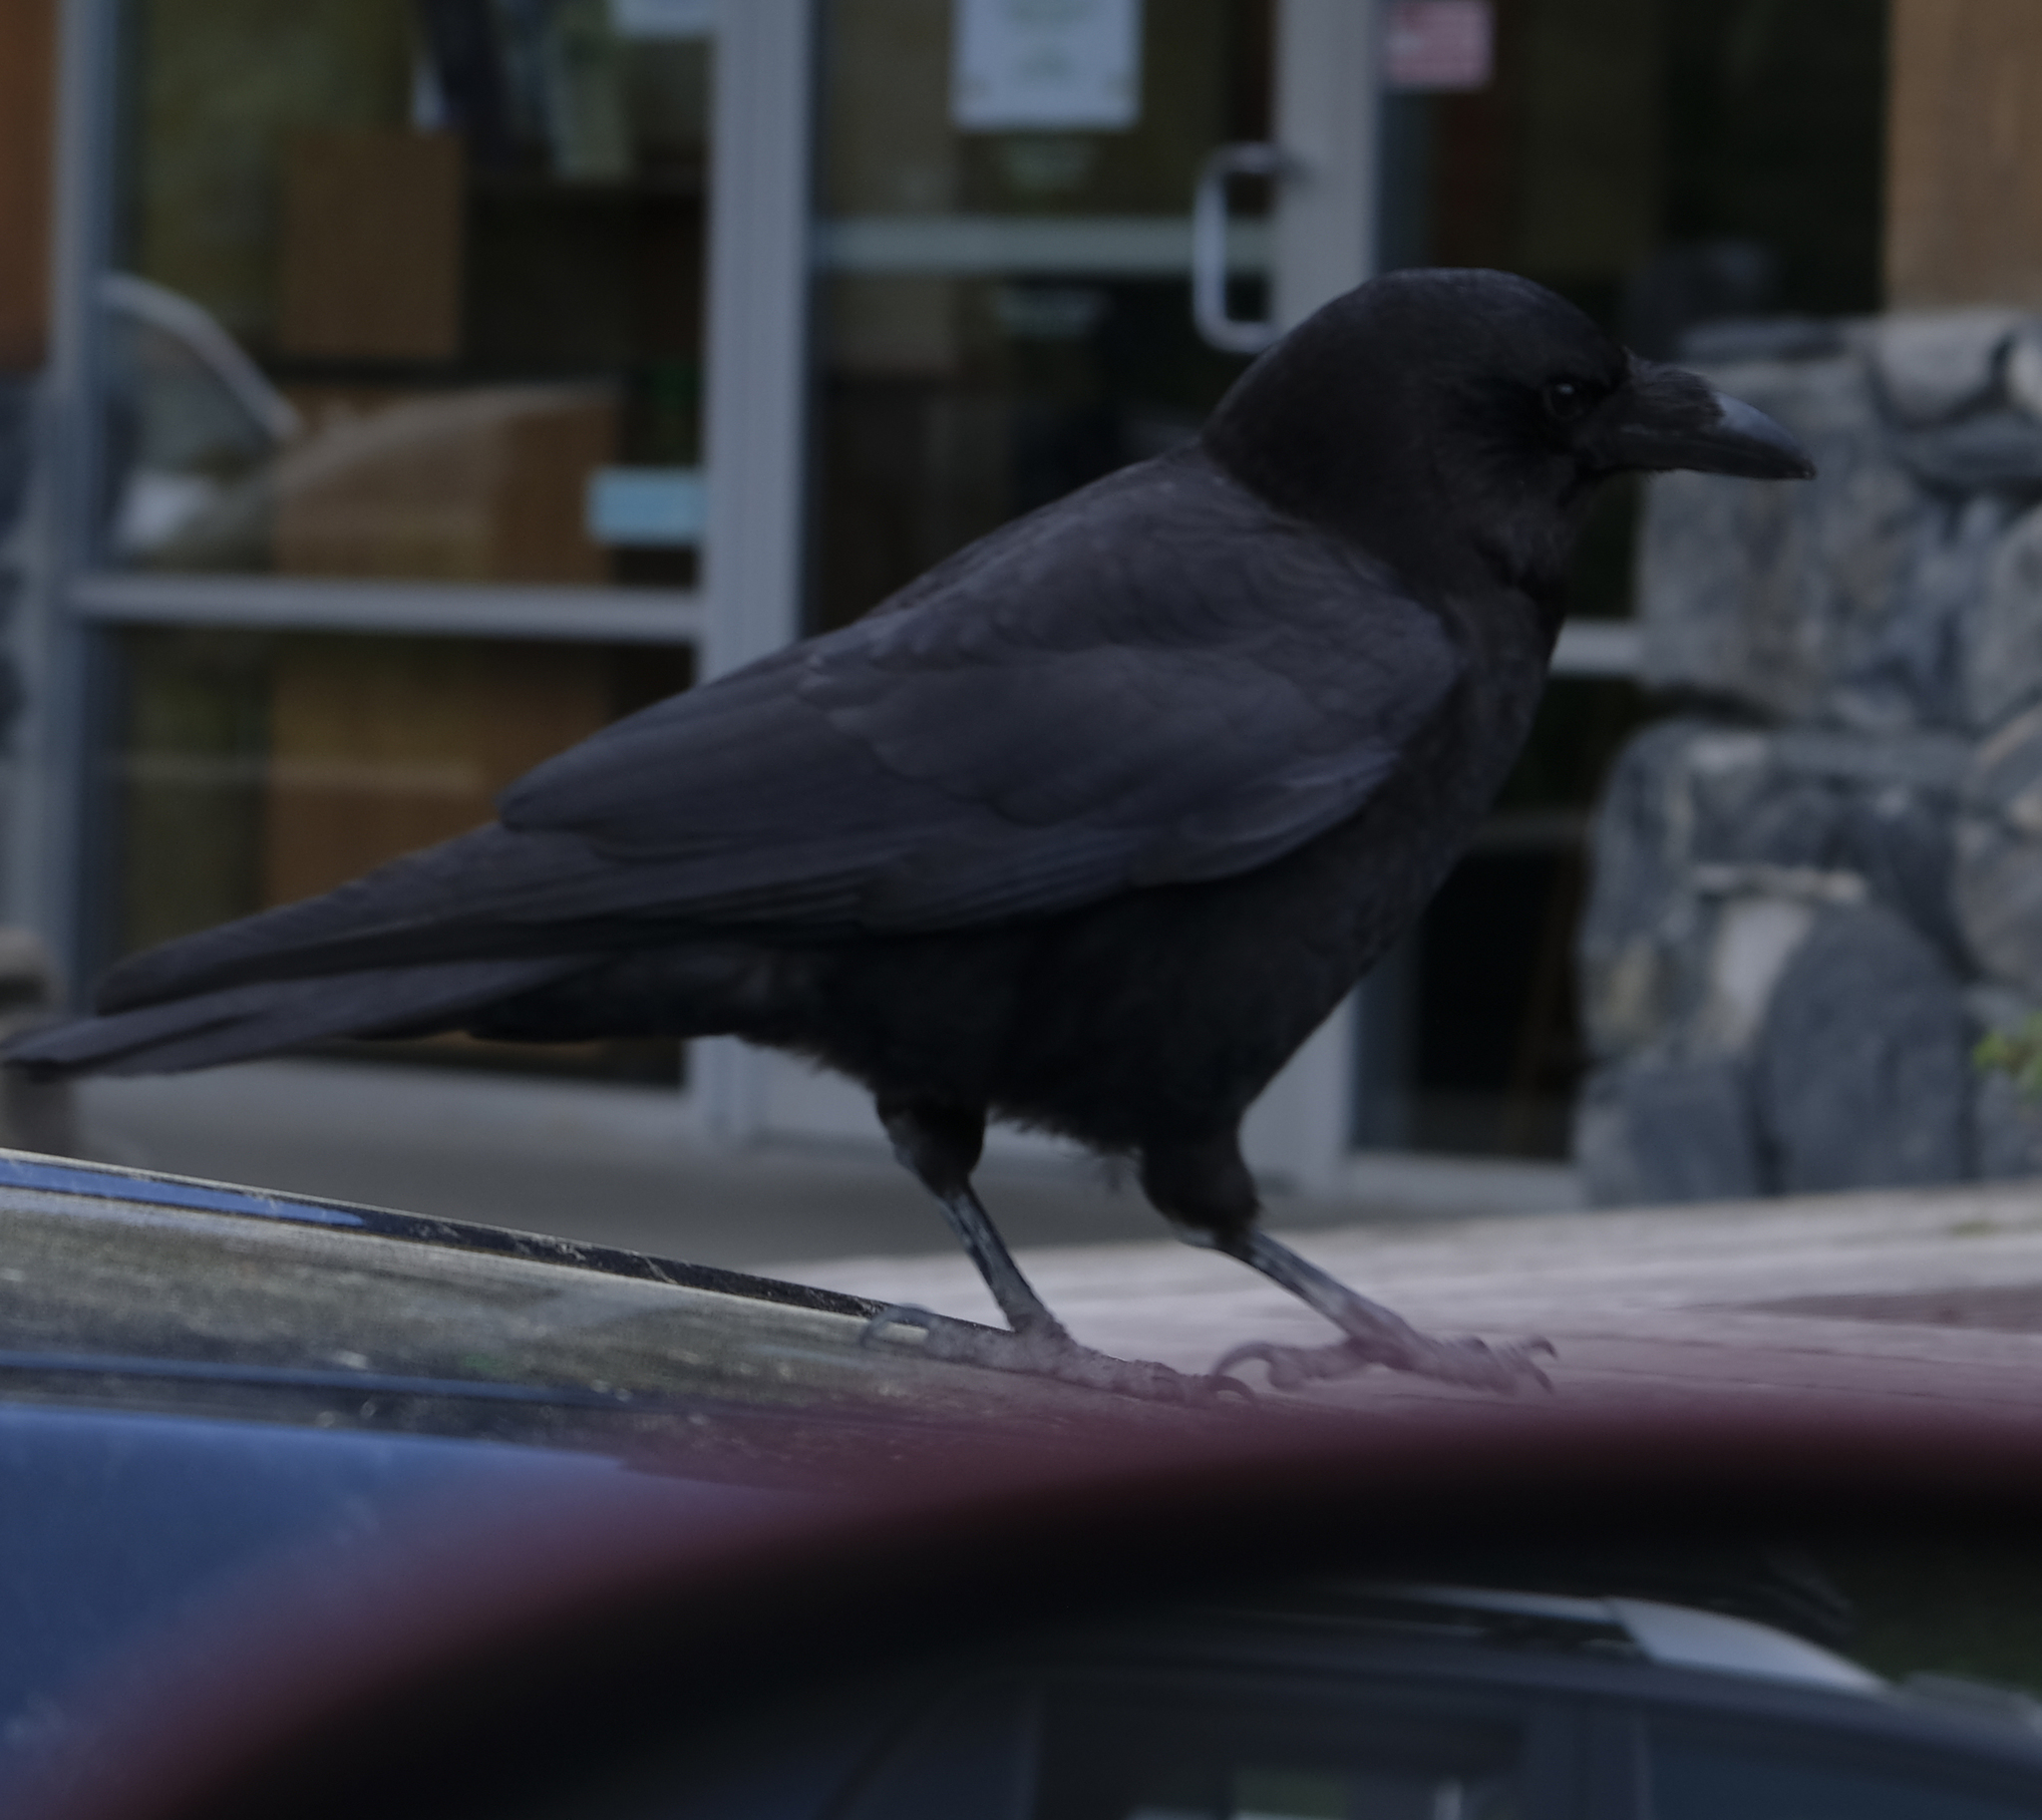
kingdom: Animalia
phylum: Chordata
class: Aves
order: Passeriformes
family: Corvidae
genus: Corvus
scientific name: Corvus brachyrhynchos
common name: American crow
